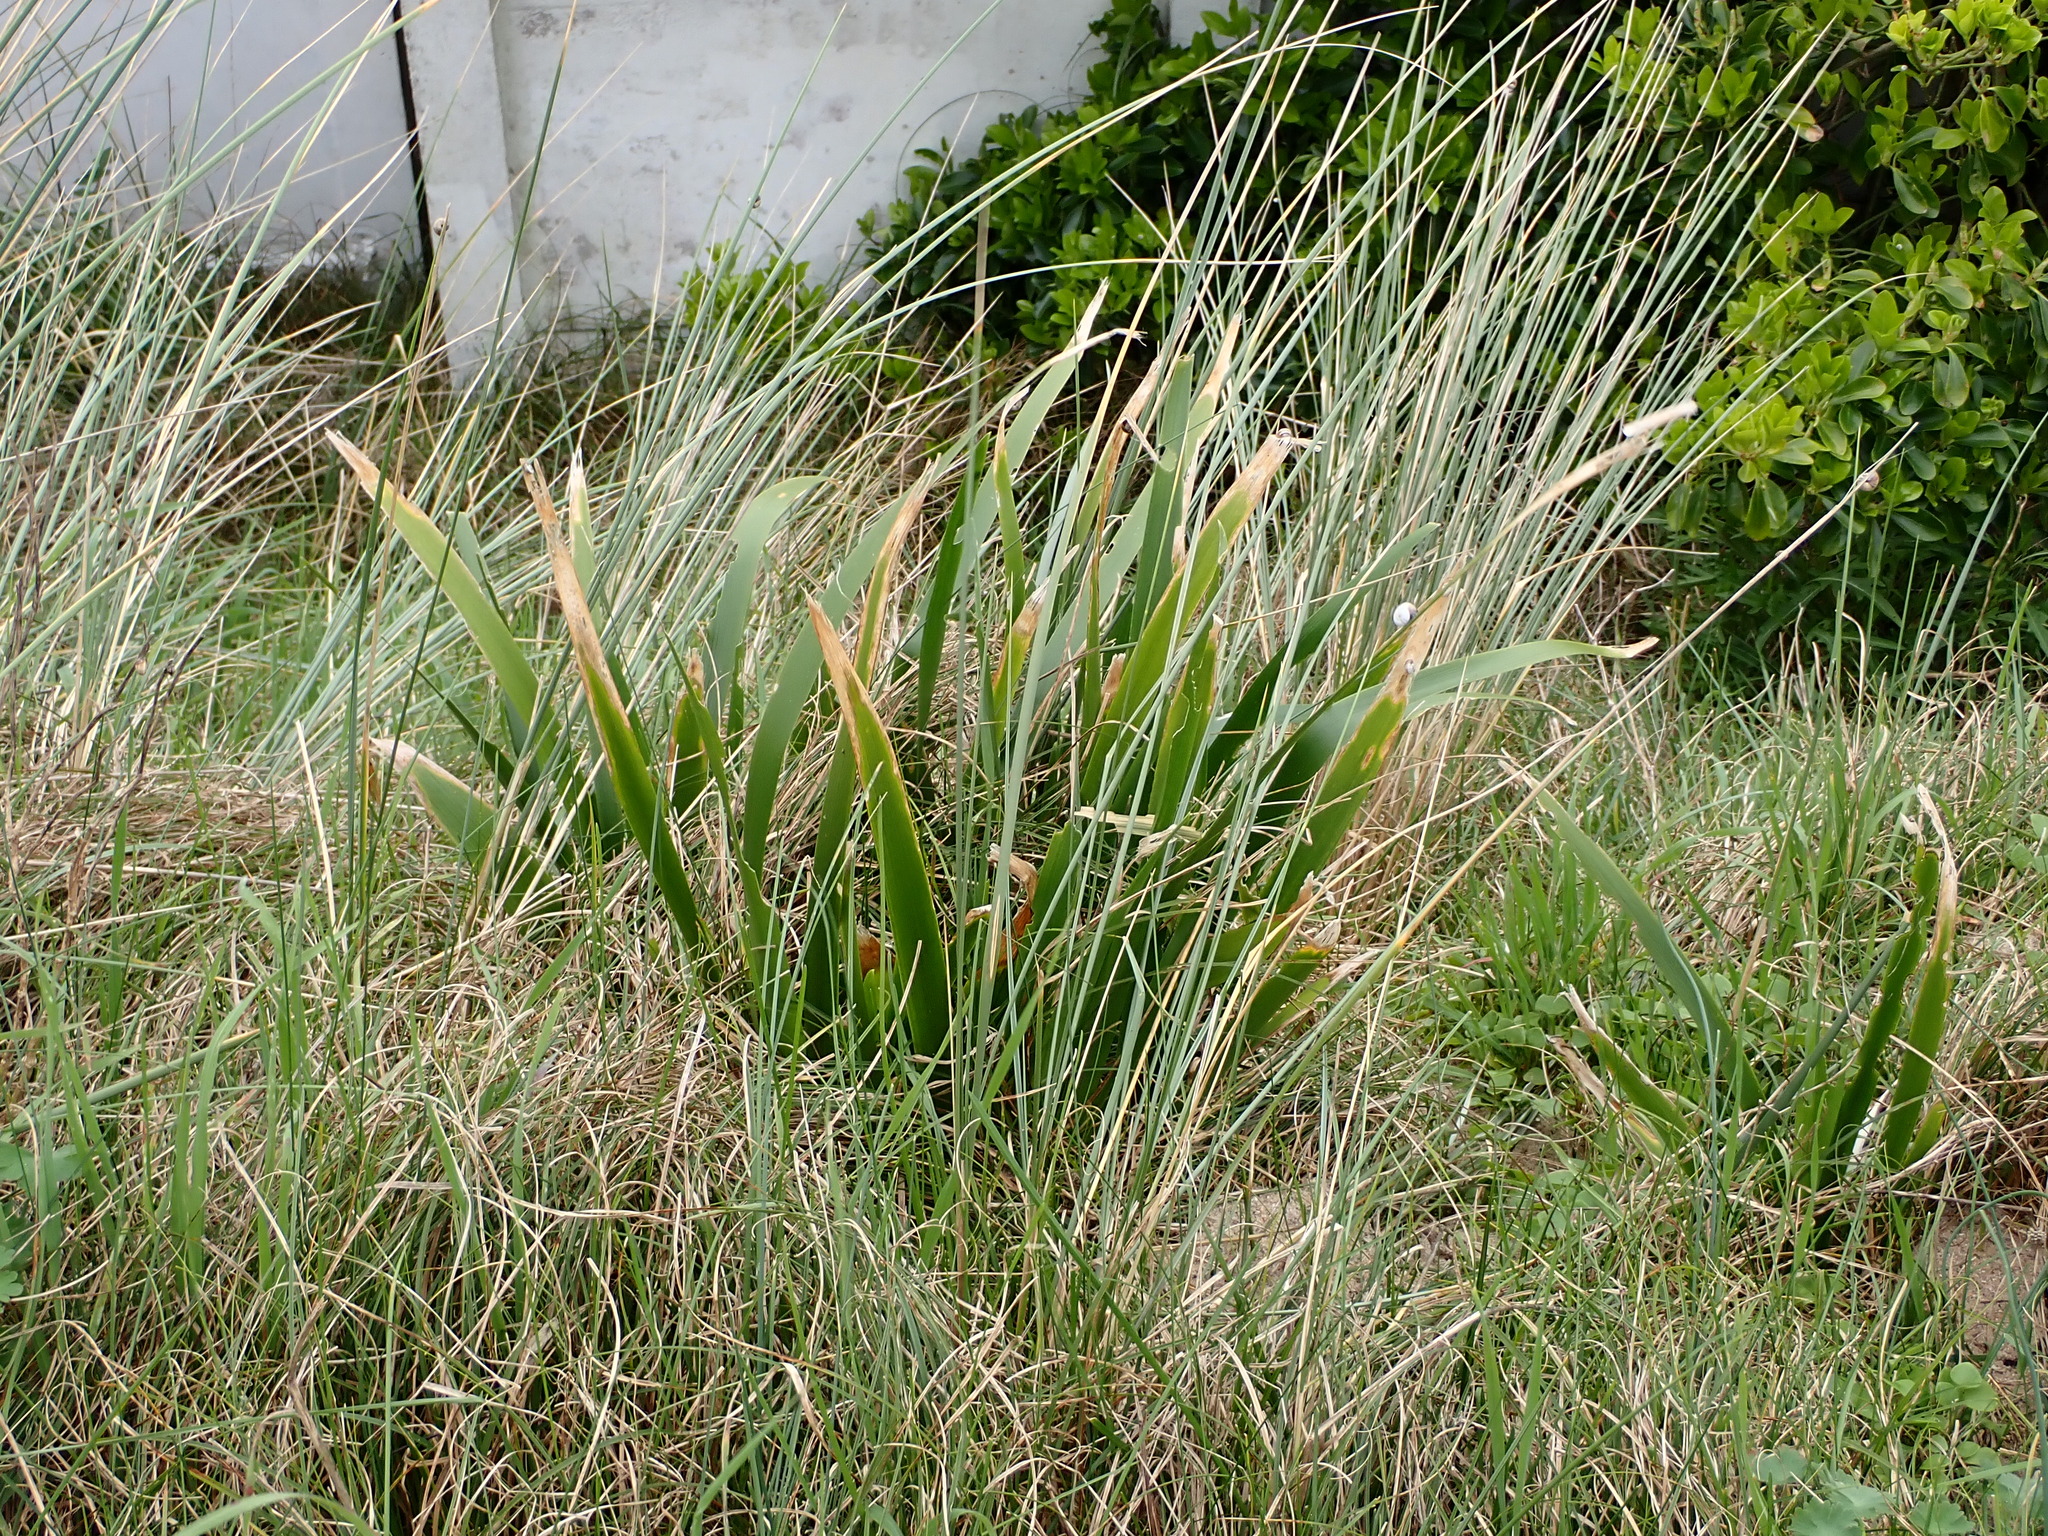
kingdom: Plantae
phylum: Tracheophyta
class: Liliopsida
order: Asparagales
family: Iridaceae
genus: Iris
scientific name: Iris foetidissima
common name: Stinking iris
